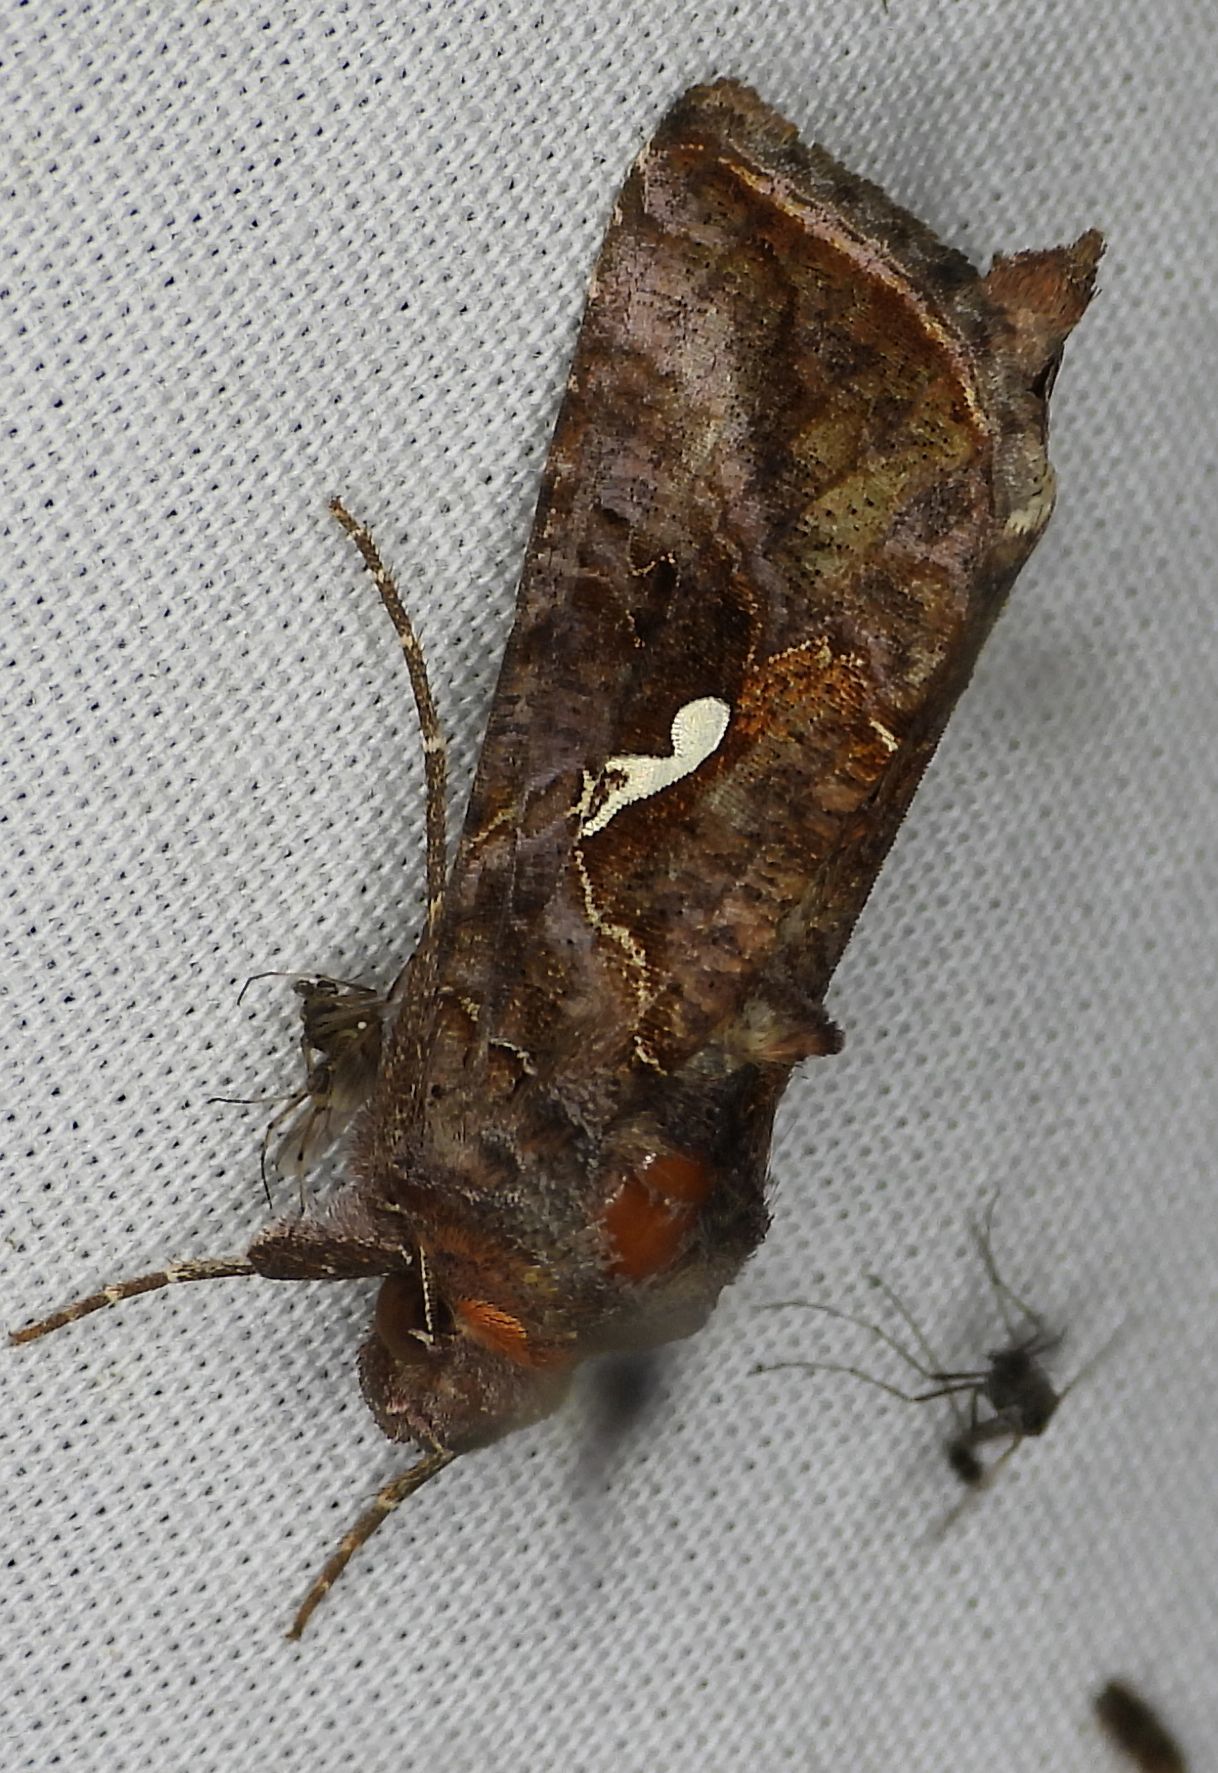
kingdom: Animalia
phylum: Arthropoda
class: Insecta
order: Lepidoptera
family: Noctuidae
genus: Autographa
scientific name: Autographa precationis
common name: Common looper moth
